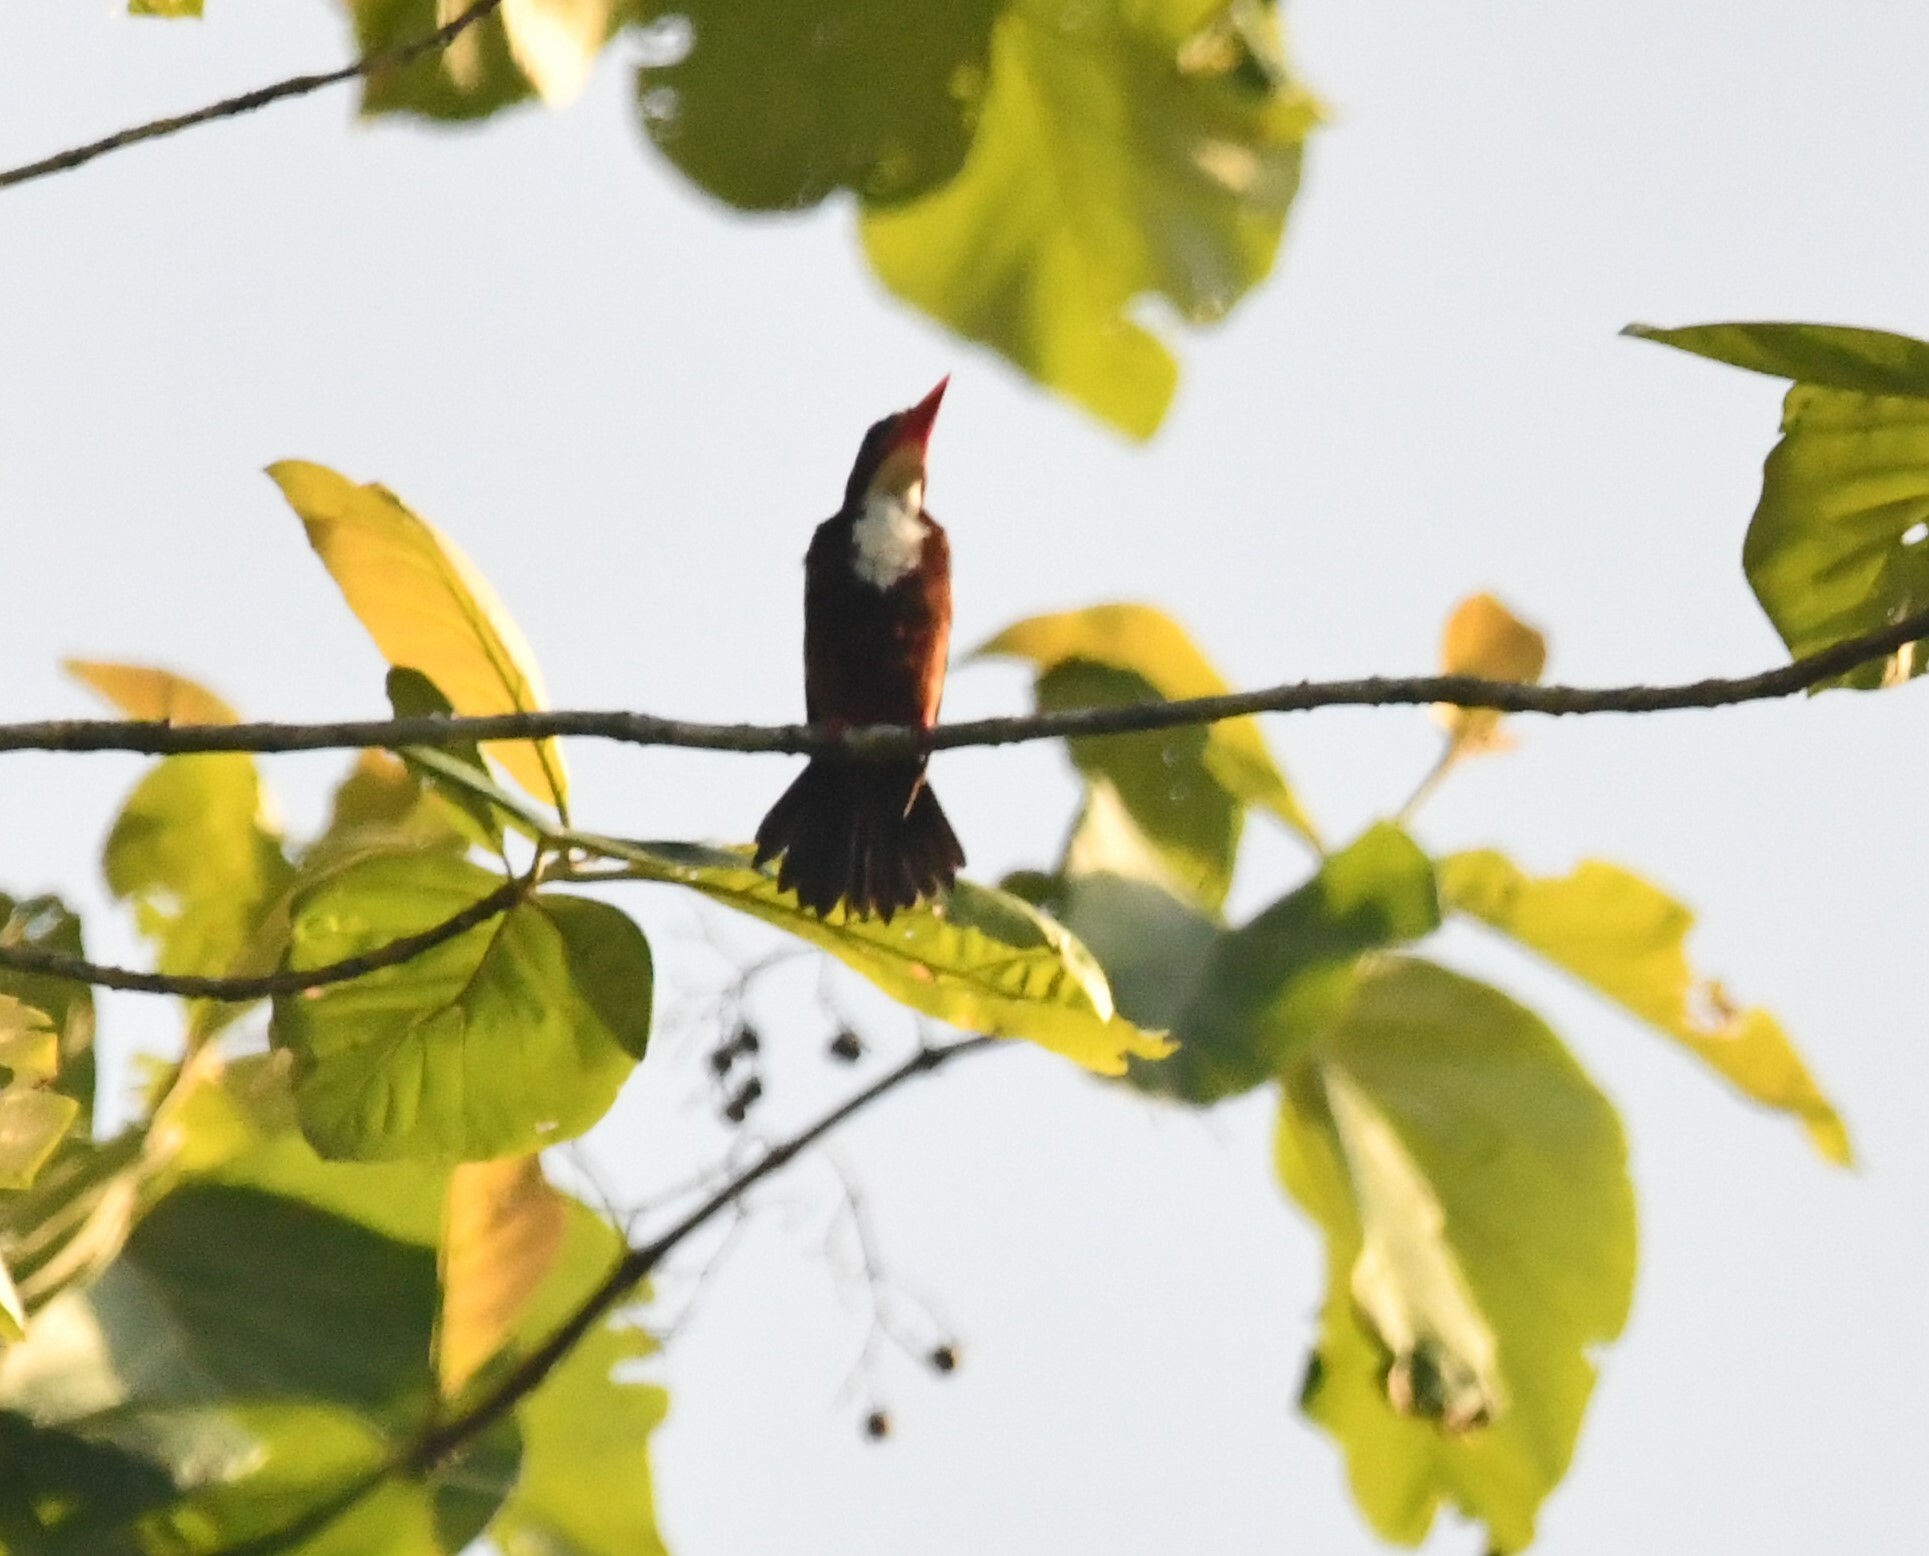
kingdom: Animalia
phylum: Chordata
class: Aves
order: Coraciiformes
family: Alcedinidae
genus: Halcyon
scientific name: Halcyon smyrnensis
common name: White-throated kingfisher
